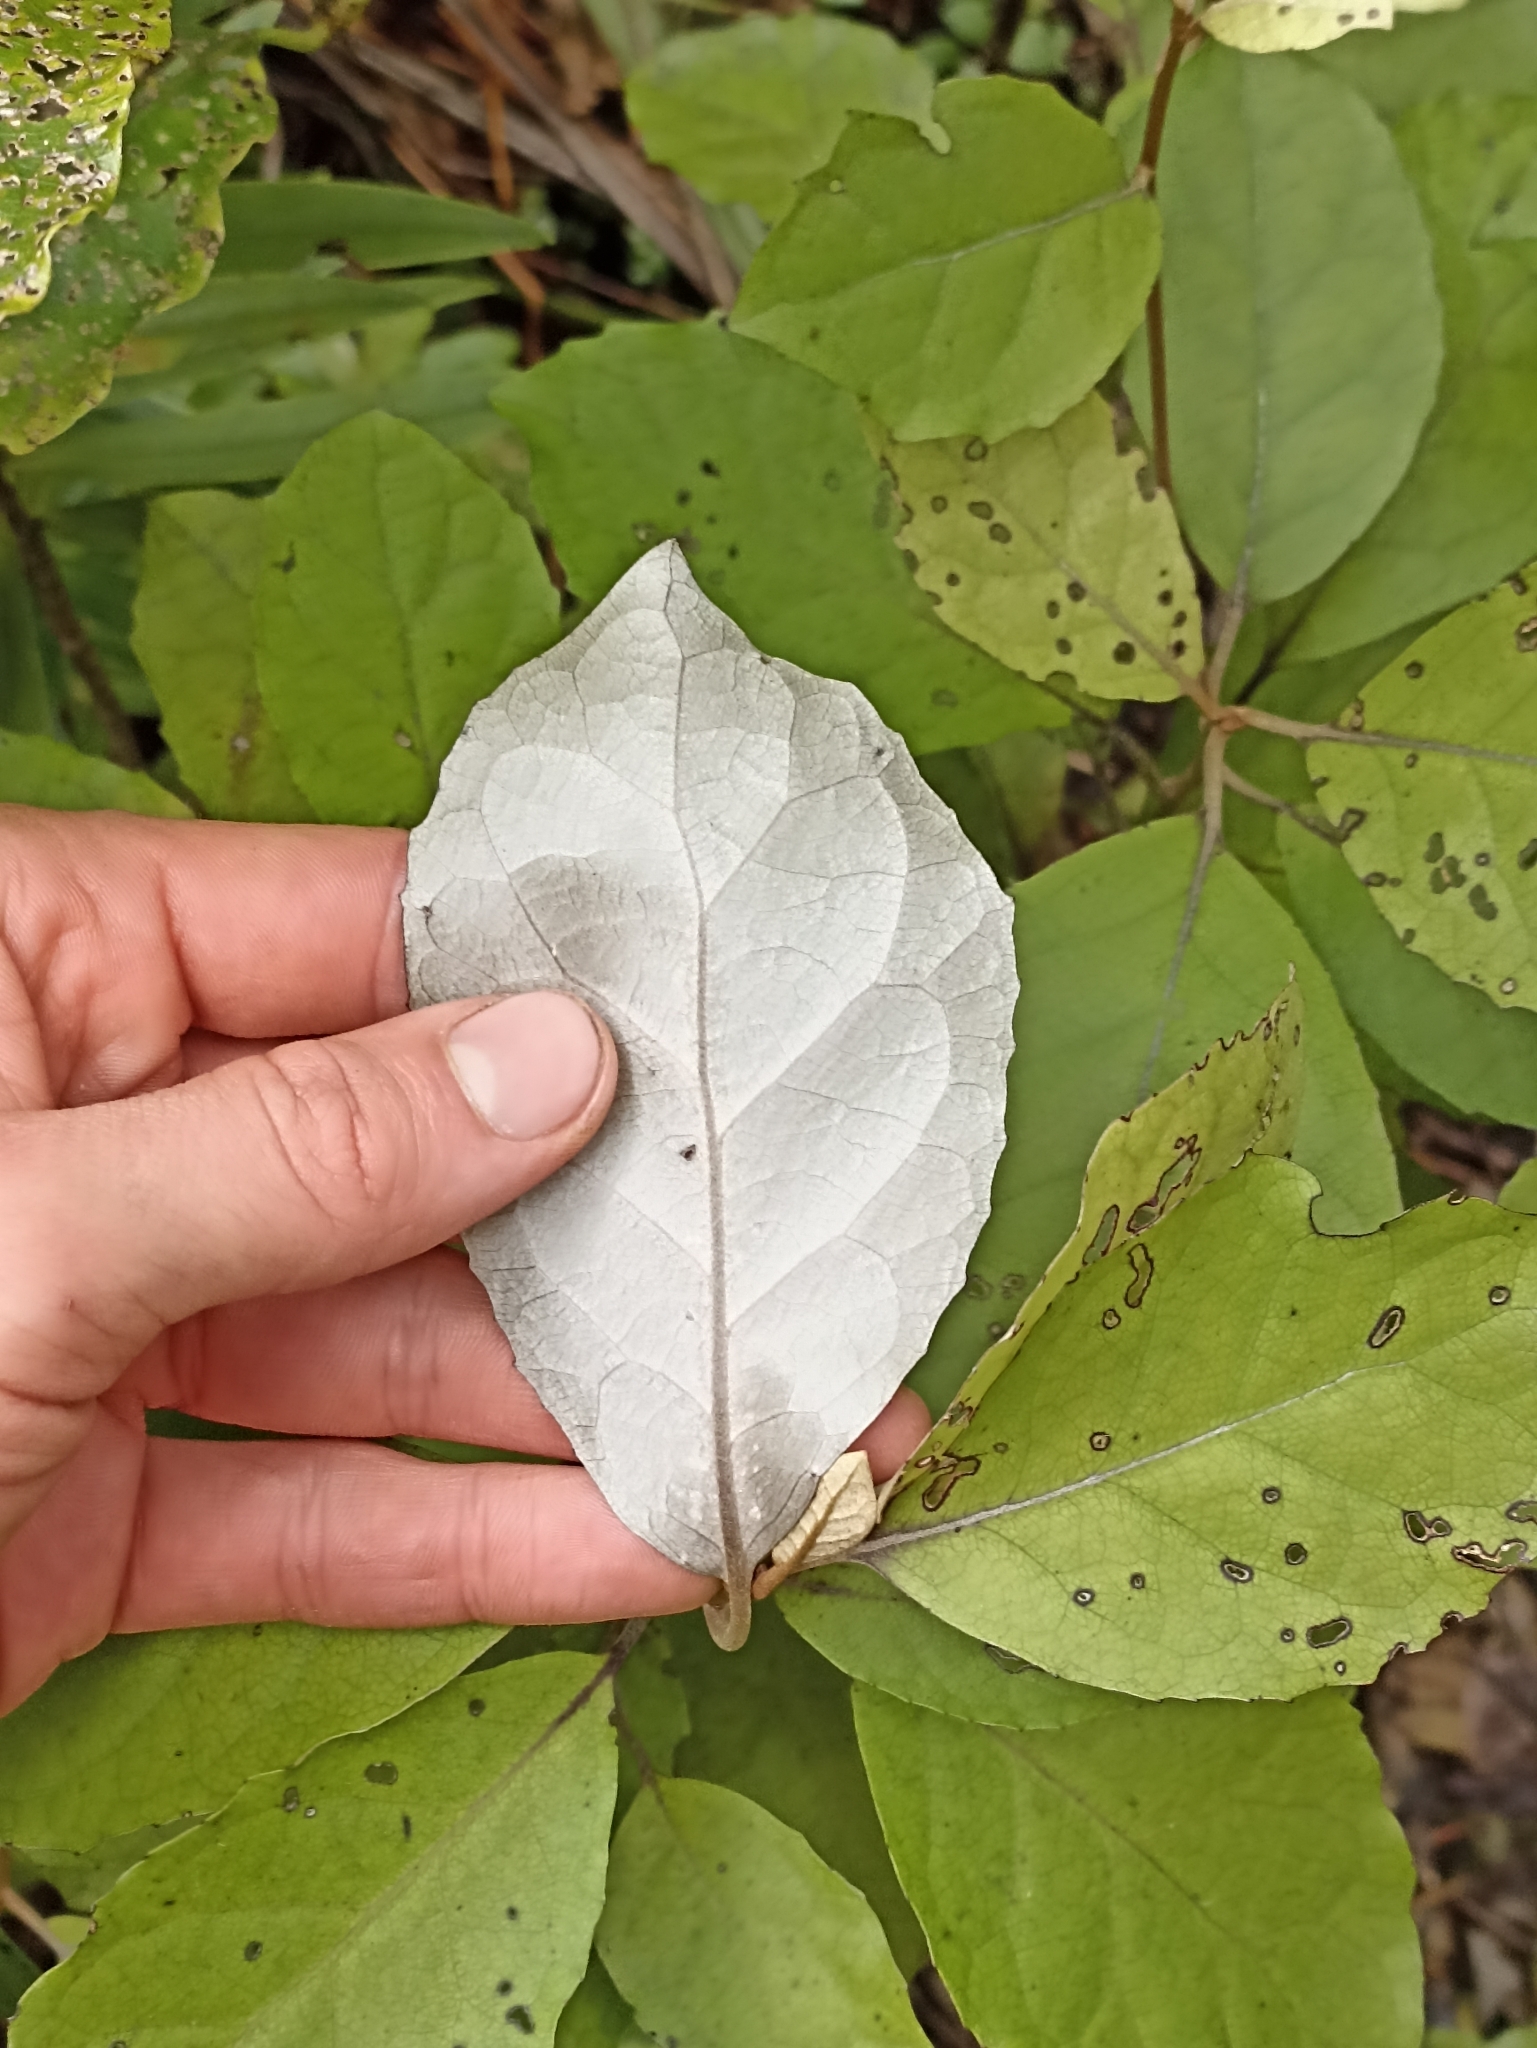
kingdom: Plantae
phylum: Tracheophyta
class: Magnoliopsida
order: Asterales
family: Asteraceae
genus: Olearia
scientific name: Olearia rani
